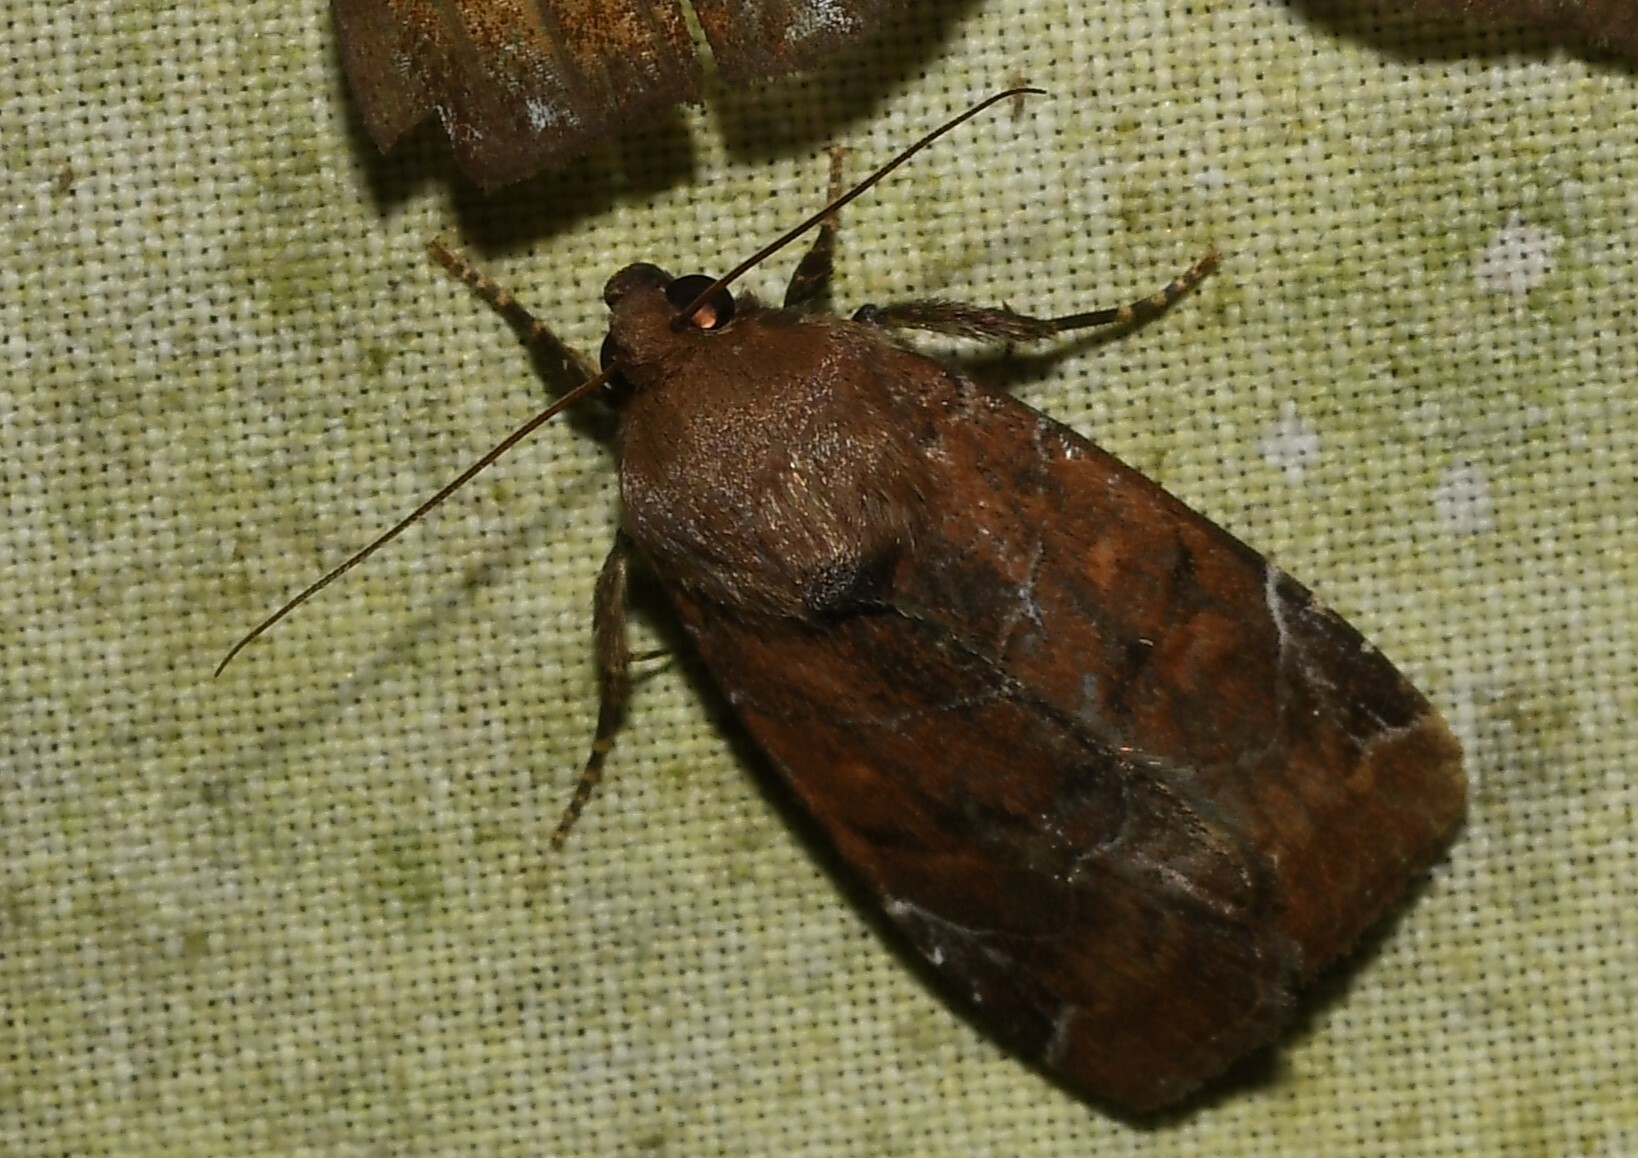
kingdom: Animalia
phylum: Arthropoda
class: Insecta
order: Lepidoptera
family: Noctuidae
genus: Hampsonodes
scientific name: Hampsonodes mastoides
